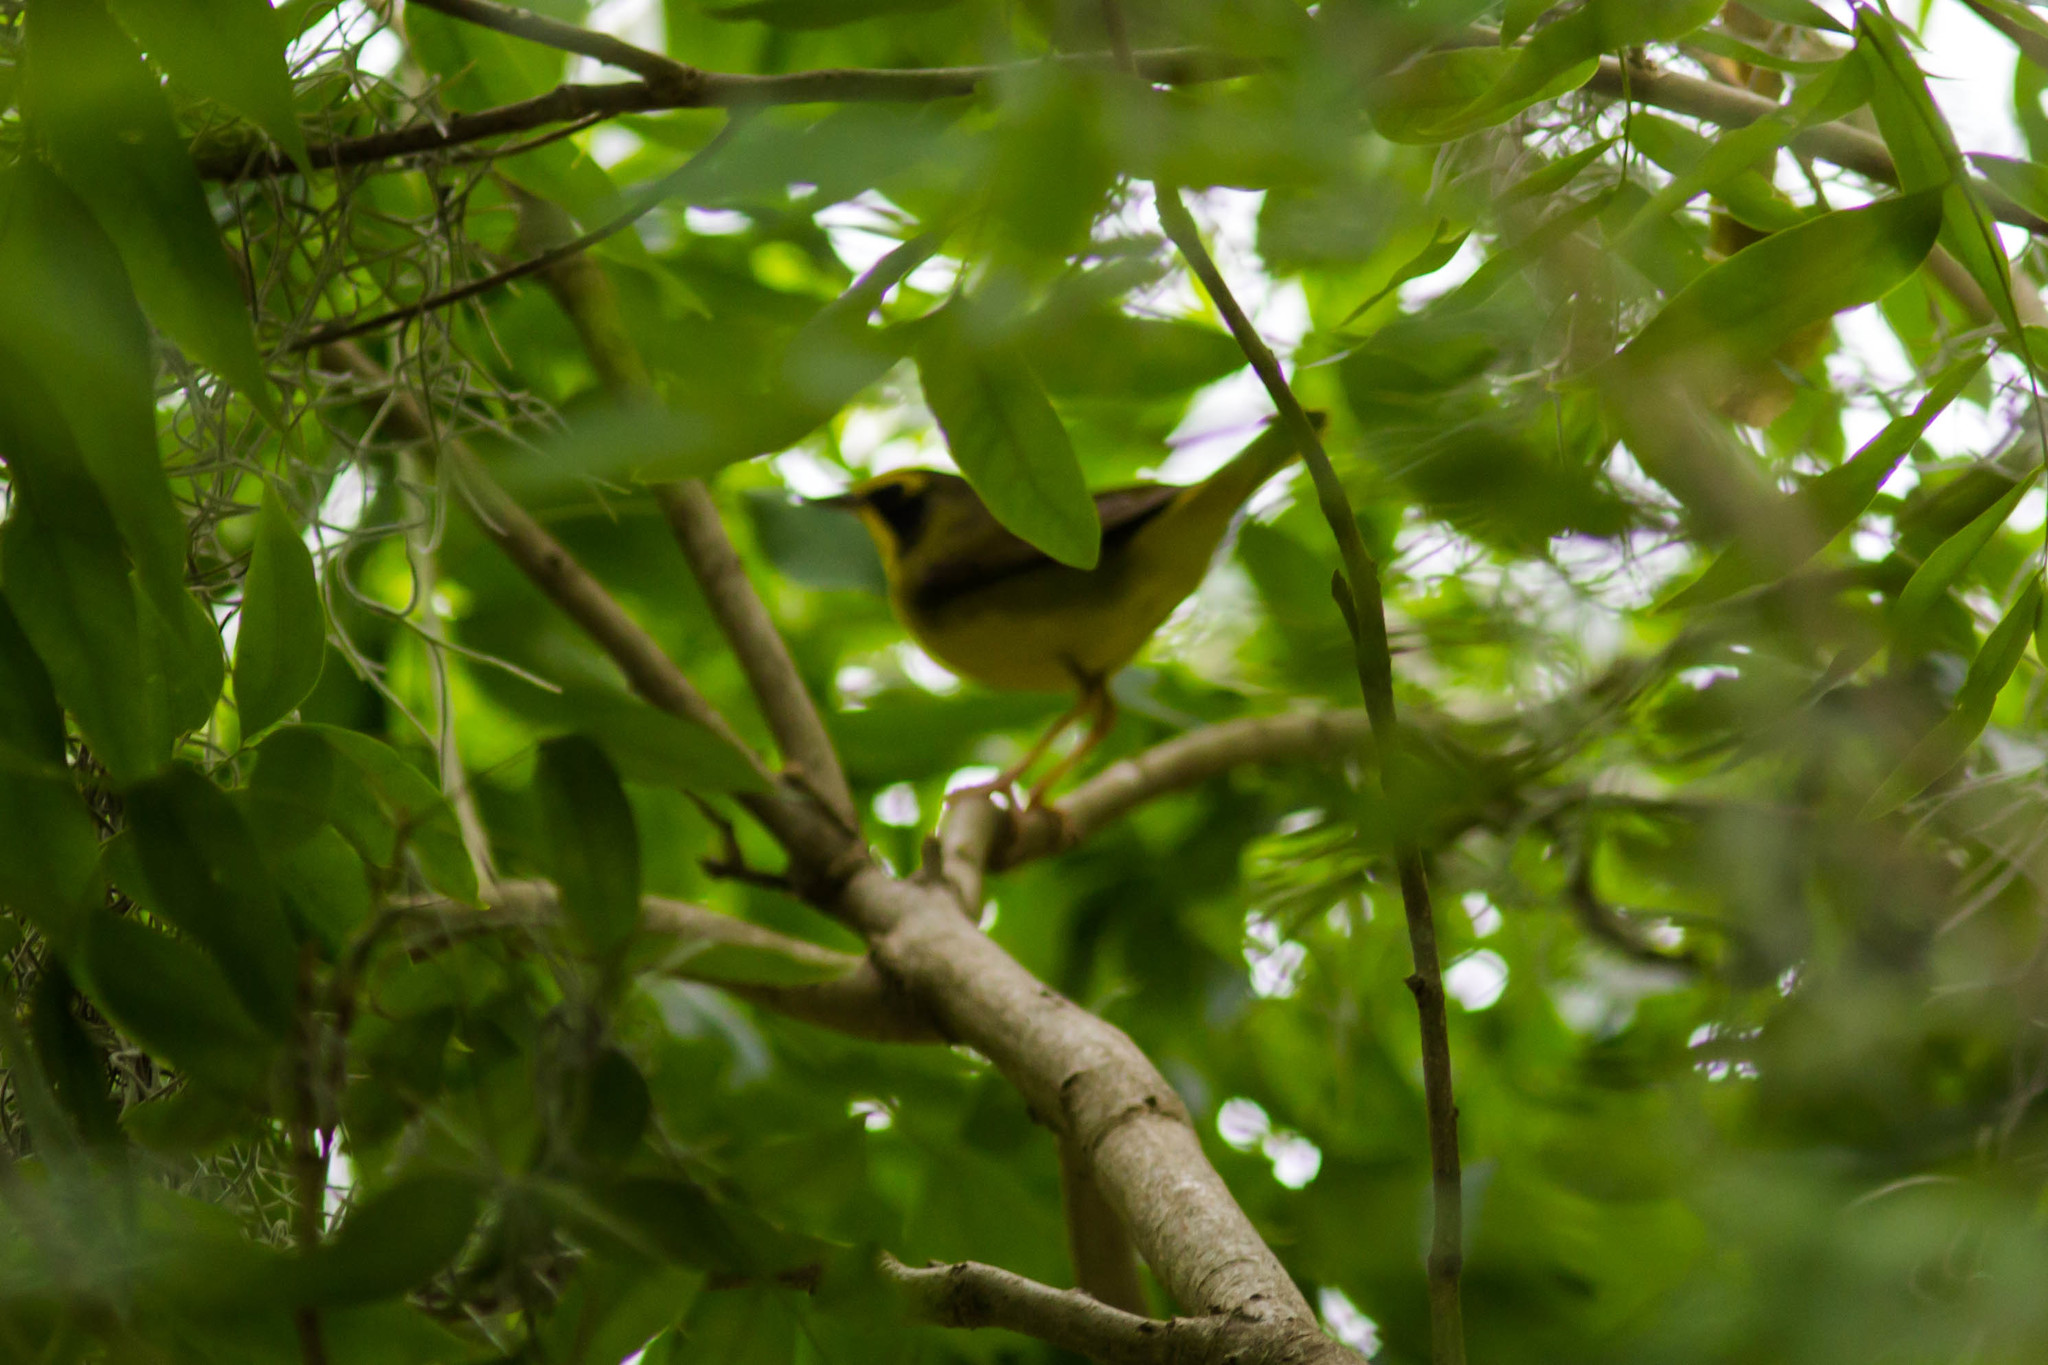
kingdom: Animalia
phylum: Chordata
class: Aves
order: Passeriformes
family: Parulidae
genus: Geothlypis
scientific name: Geothlypis formosa
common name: Kentucky warbler
